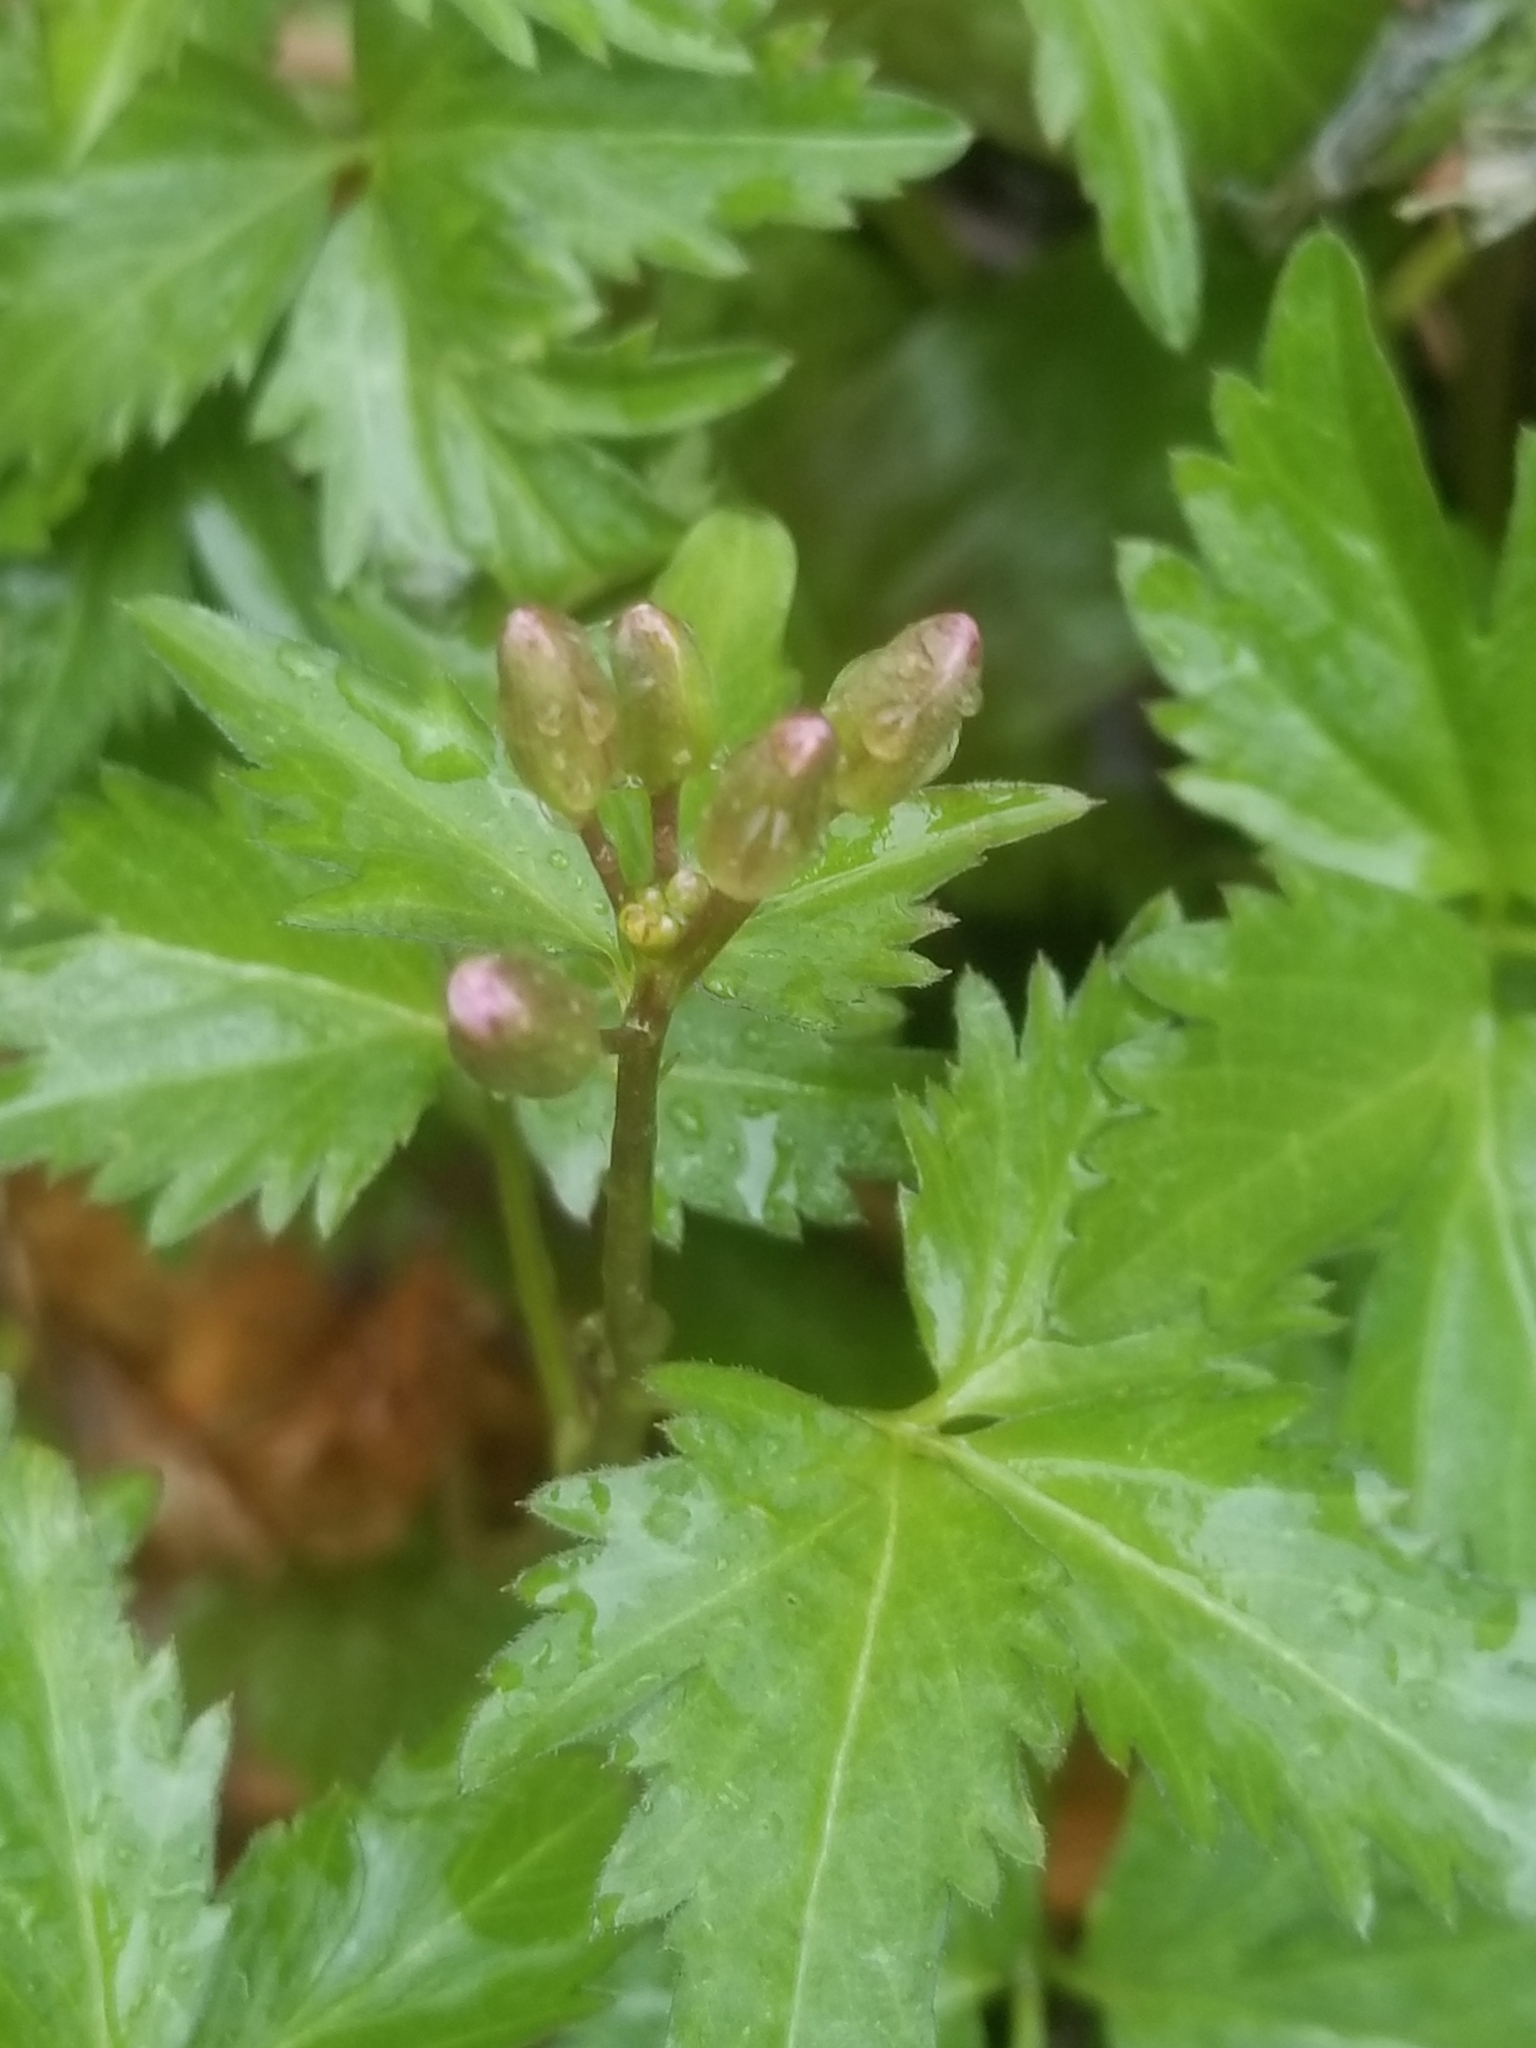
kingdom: Plantae
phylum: Tracheophyta
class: Magnoliopsida
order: Brassicales
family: Brassicaceae
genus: Cardamine
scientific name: Cardamine diphylla
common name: Broad-leaved toothwort
